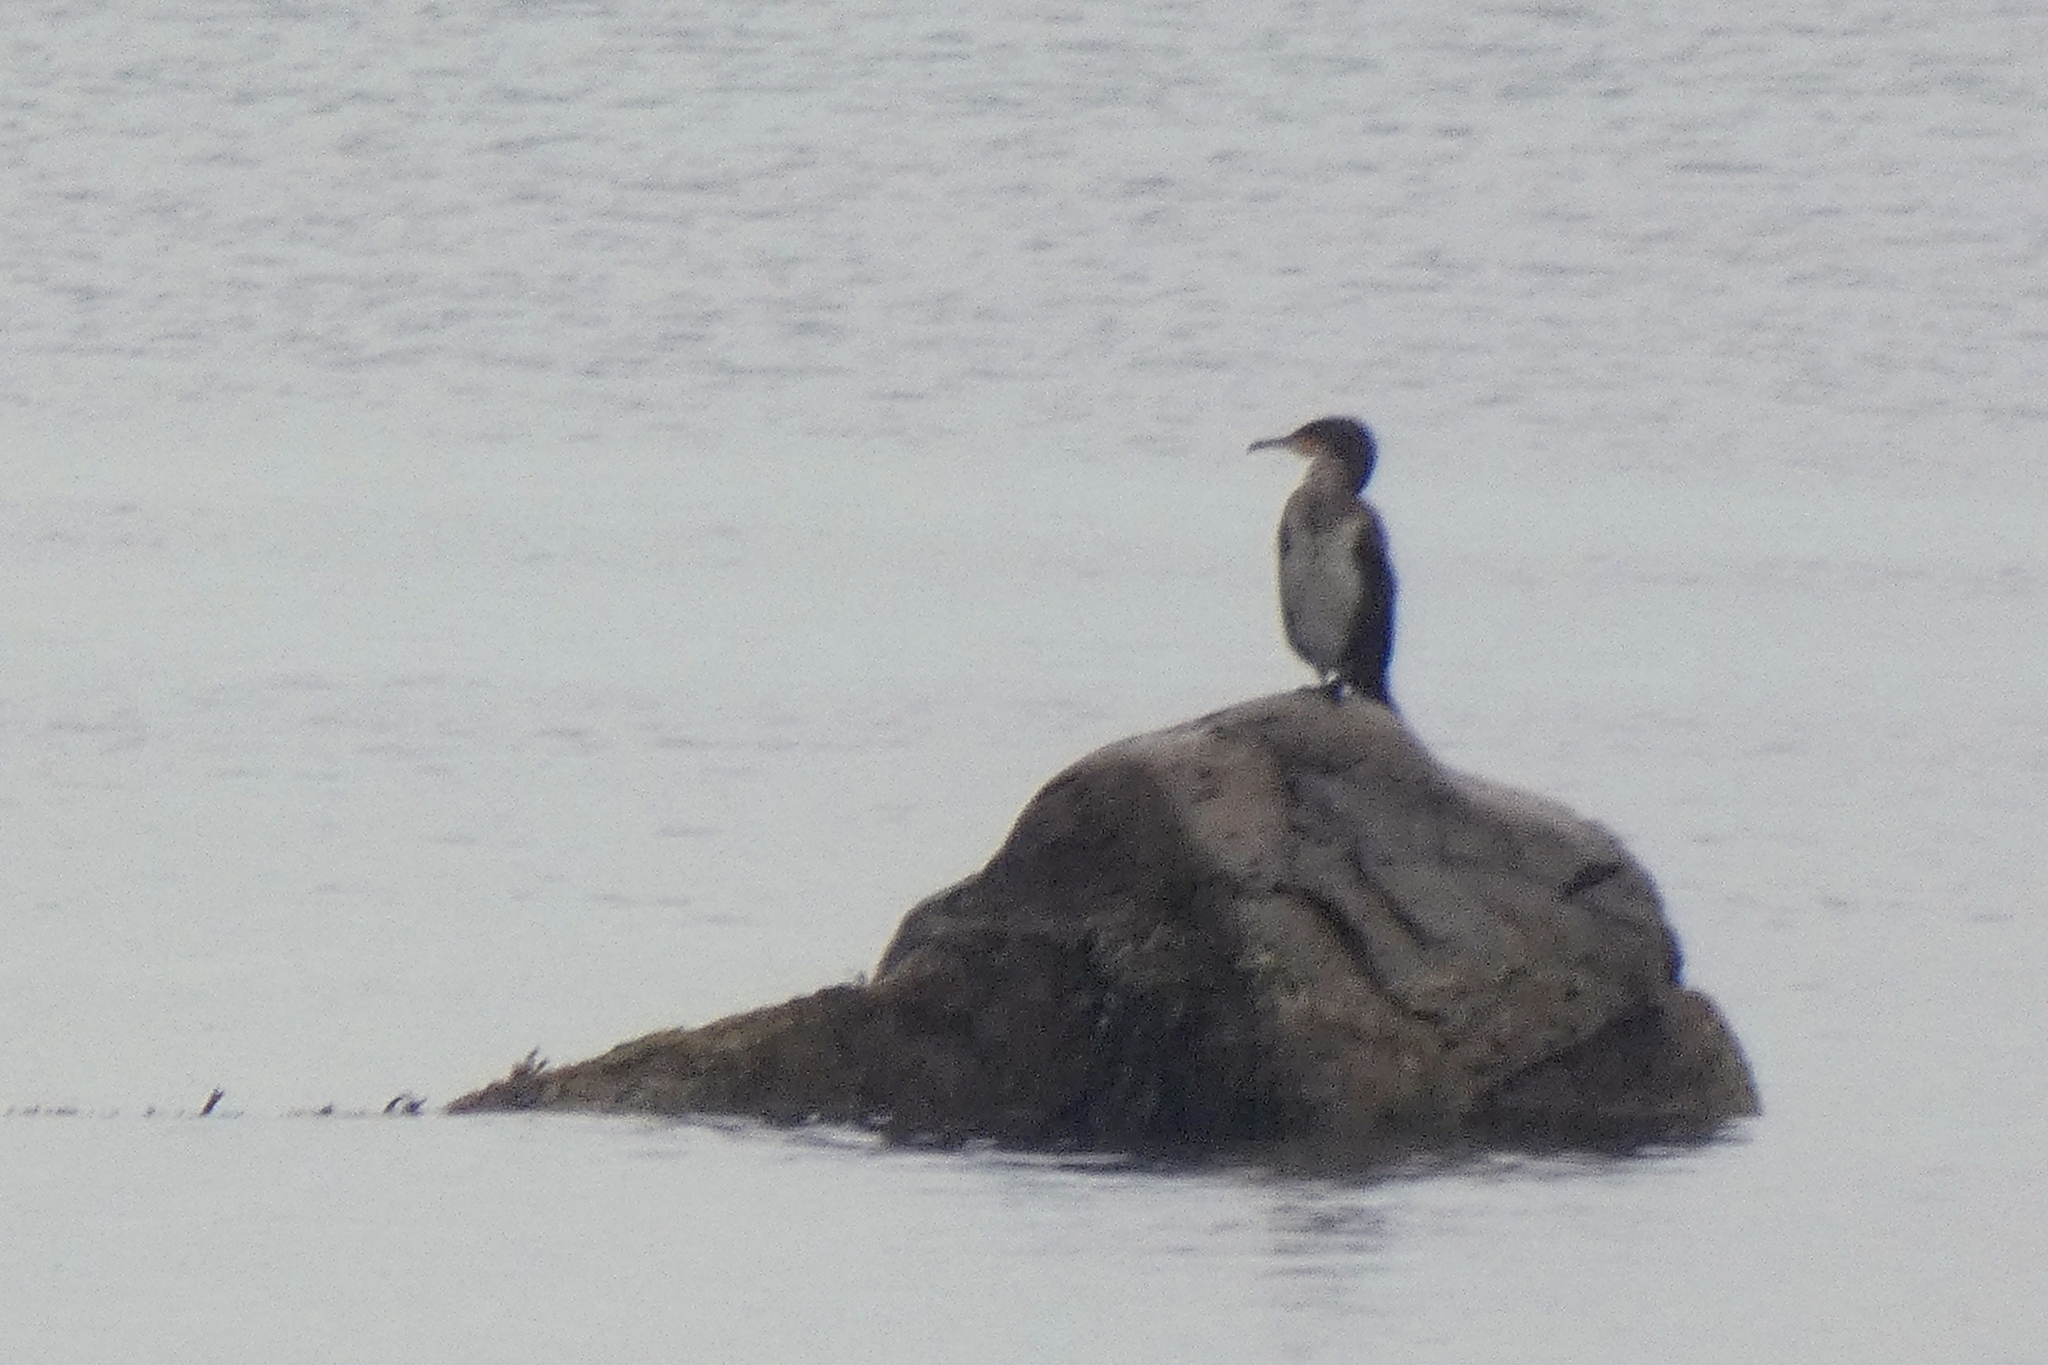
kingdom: Animalia
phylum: Chordata
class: Aves
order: Suliformes
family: Phalacrocoracidae
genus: Phalacrocorax
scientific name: Phalacrocorax carbo
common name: Great cormorant
